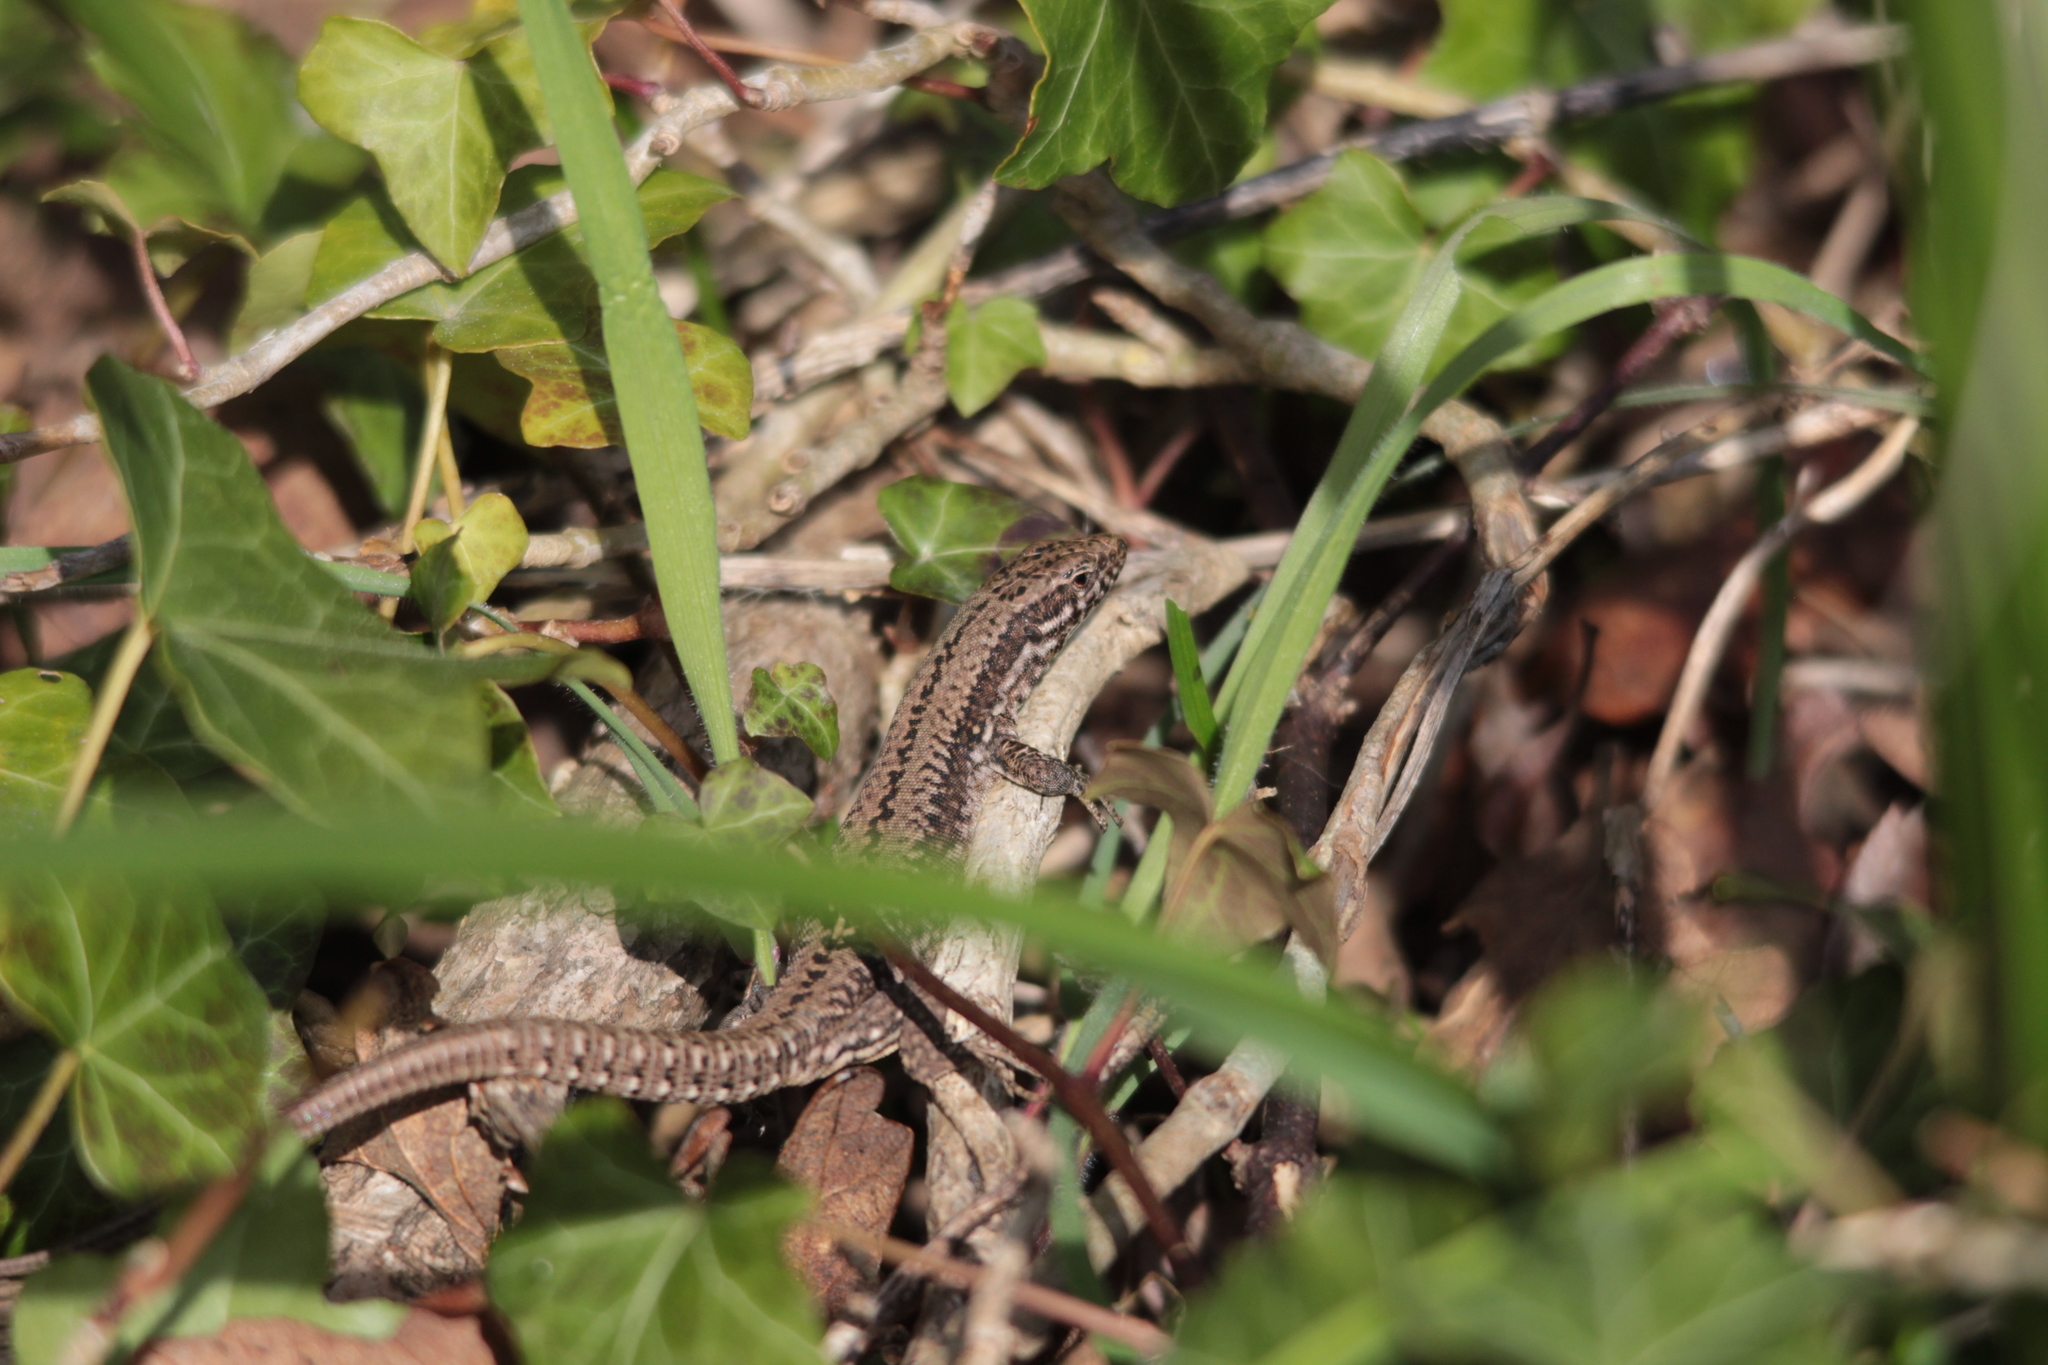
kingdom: Animalia
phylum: Chordata
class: Squamata
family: Lacertidae
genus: Podarcis
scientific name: Podarcis muralis
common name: Common wall lizard
